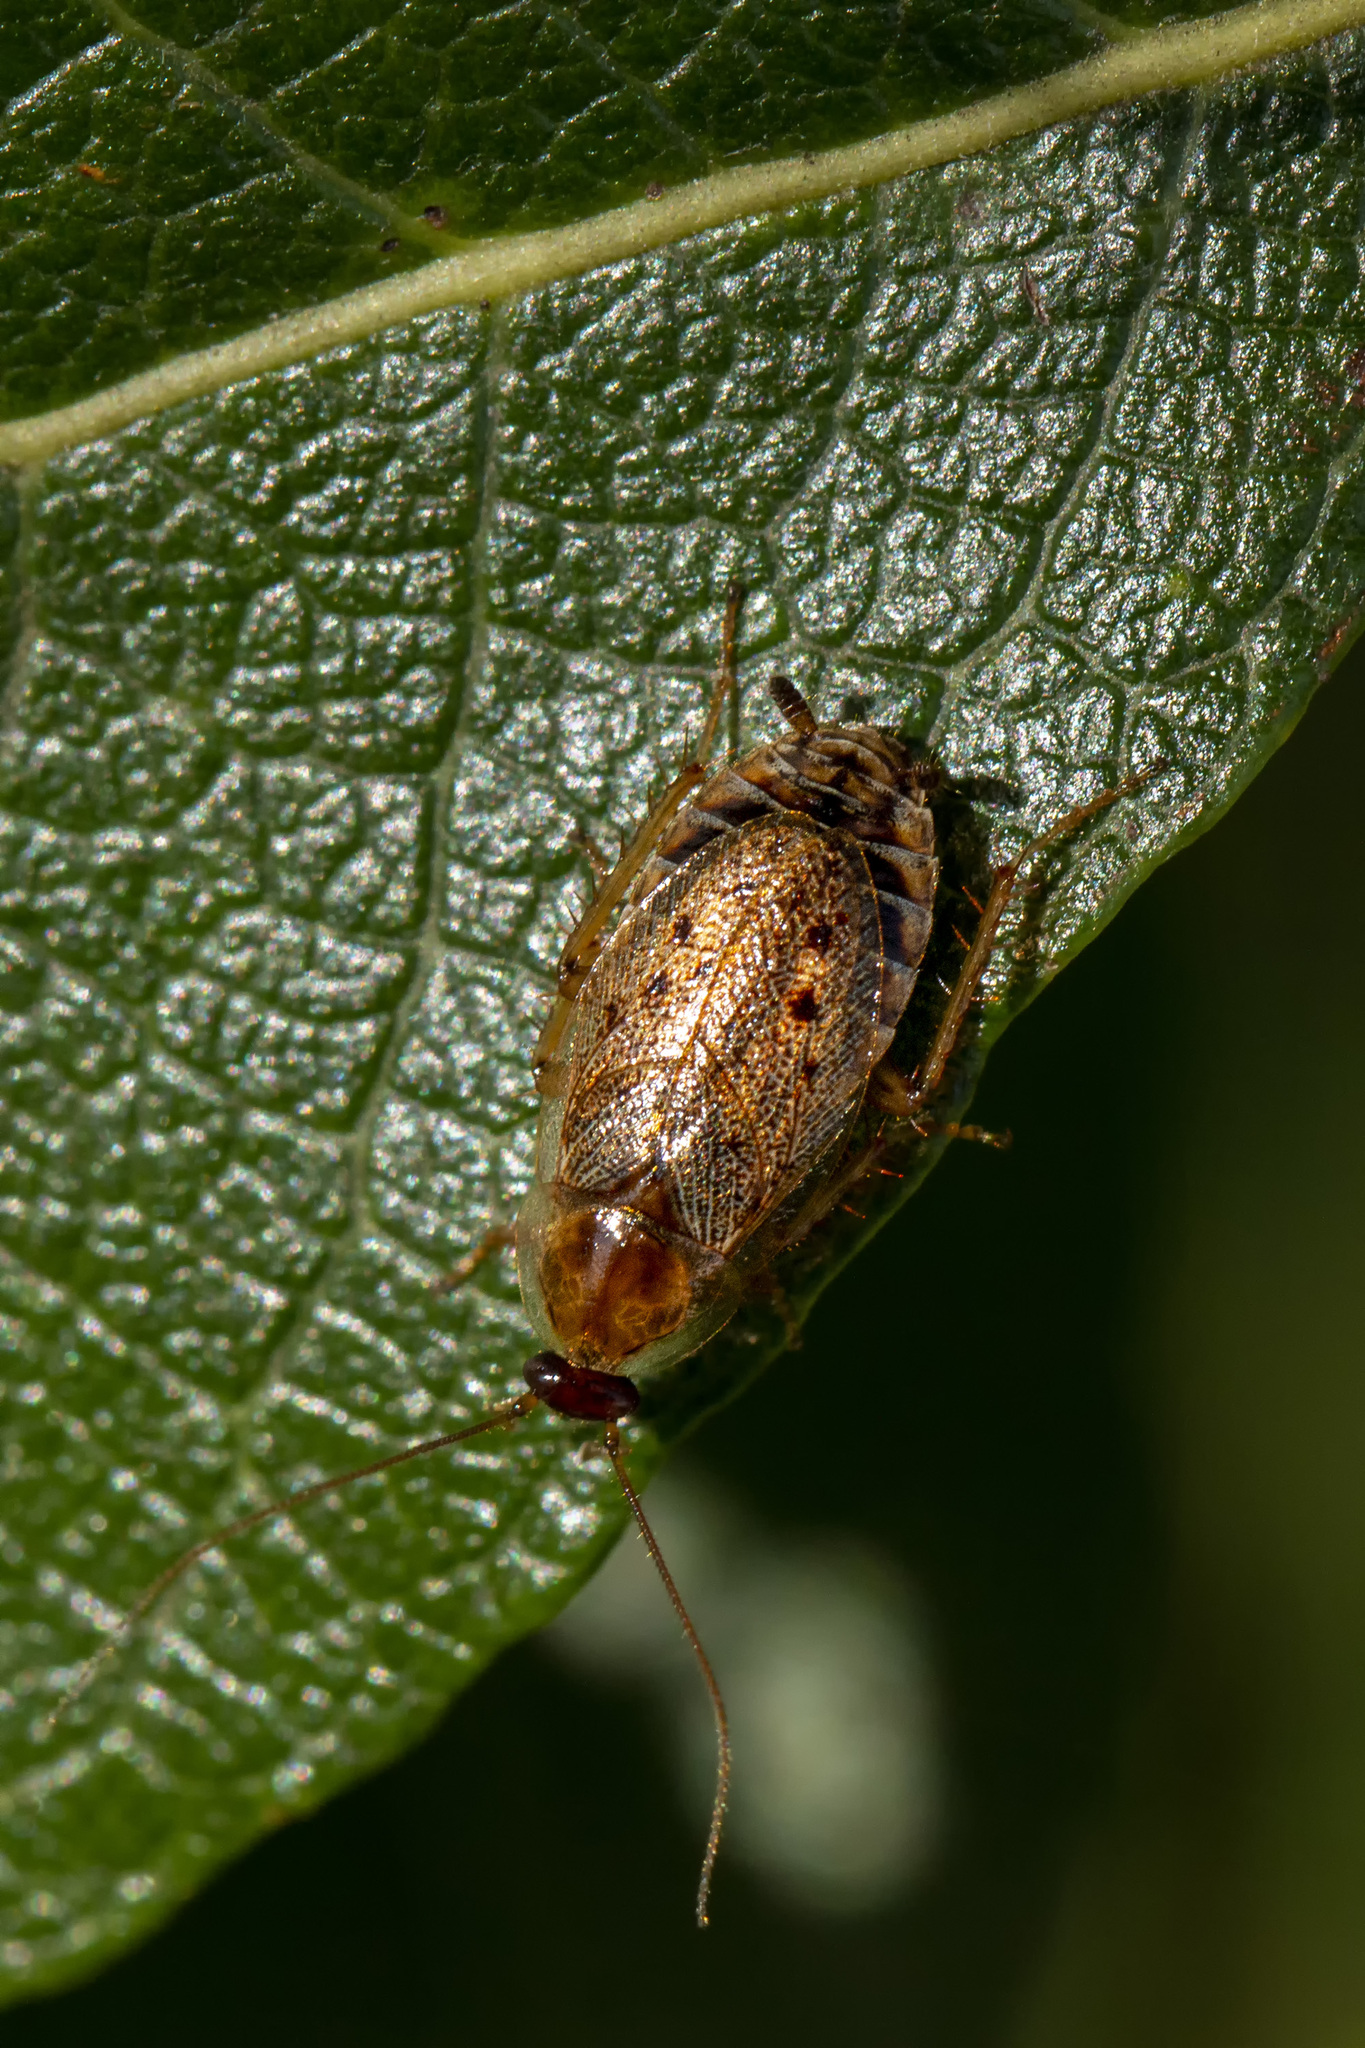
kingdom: Animalia
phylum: Arthropoda
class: Insecta
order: Blattodea
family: Ectobiidae
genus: Ectobius
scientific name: Ectobius lapponicus
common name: Dusky cockroach
